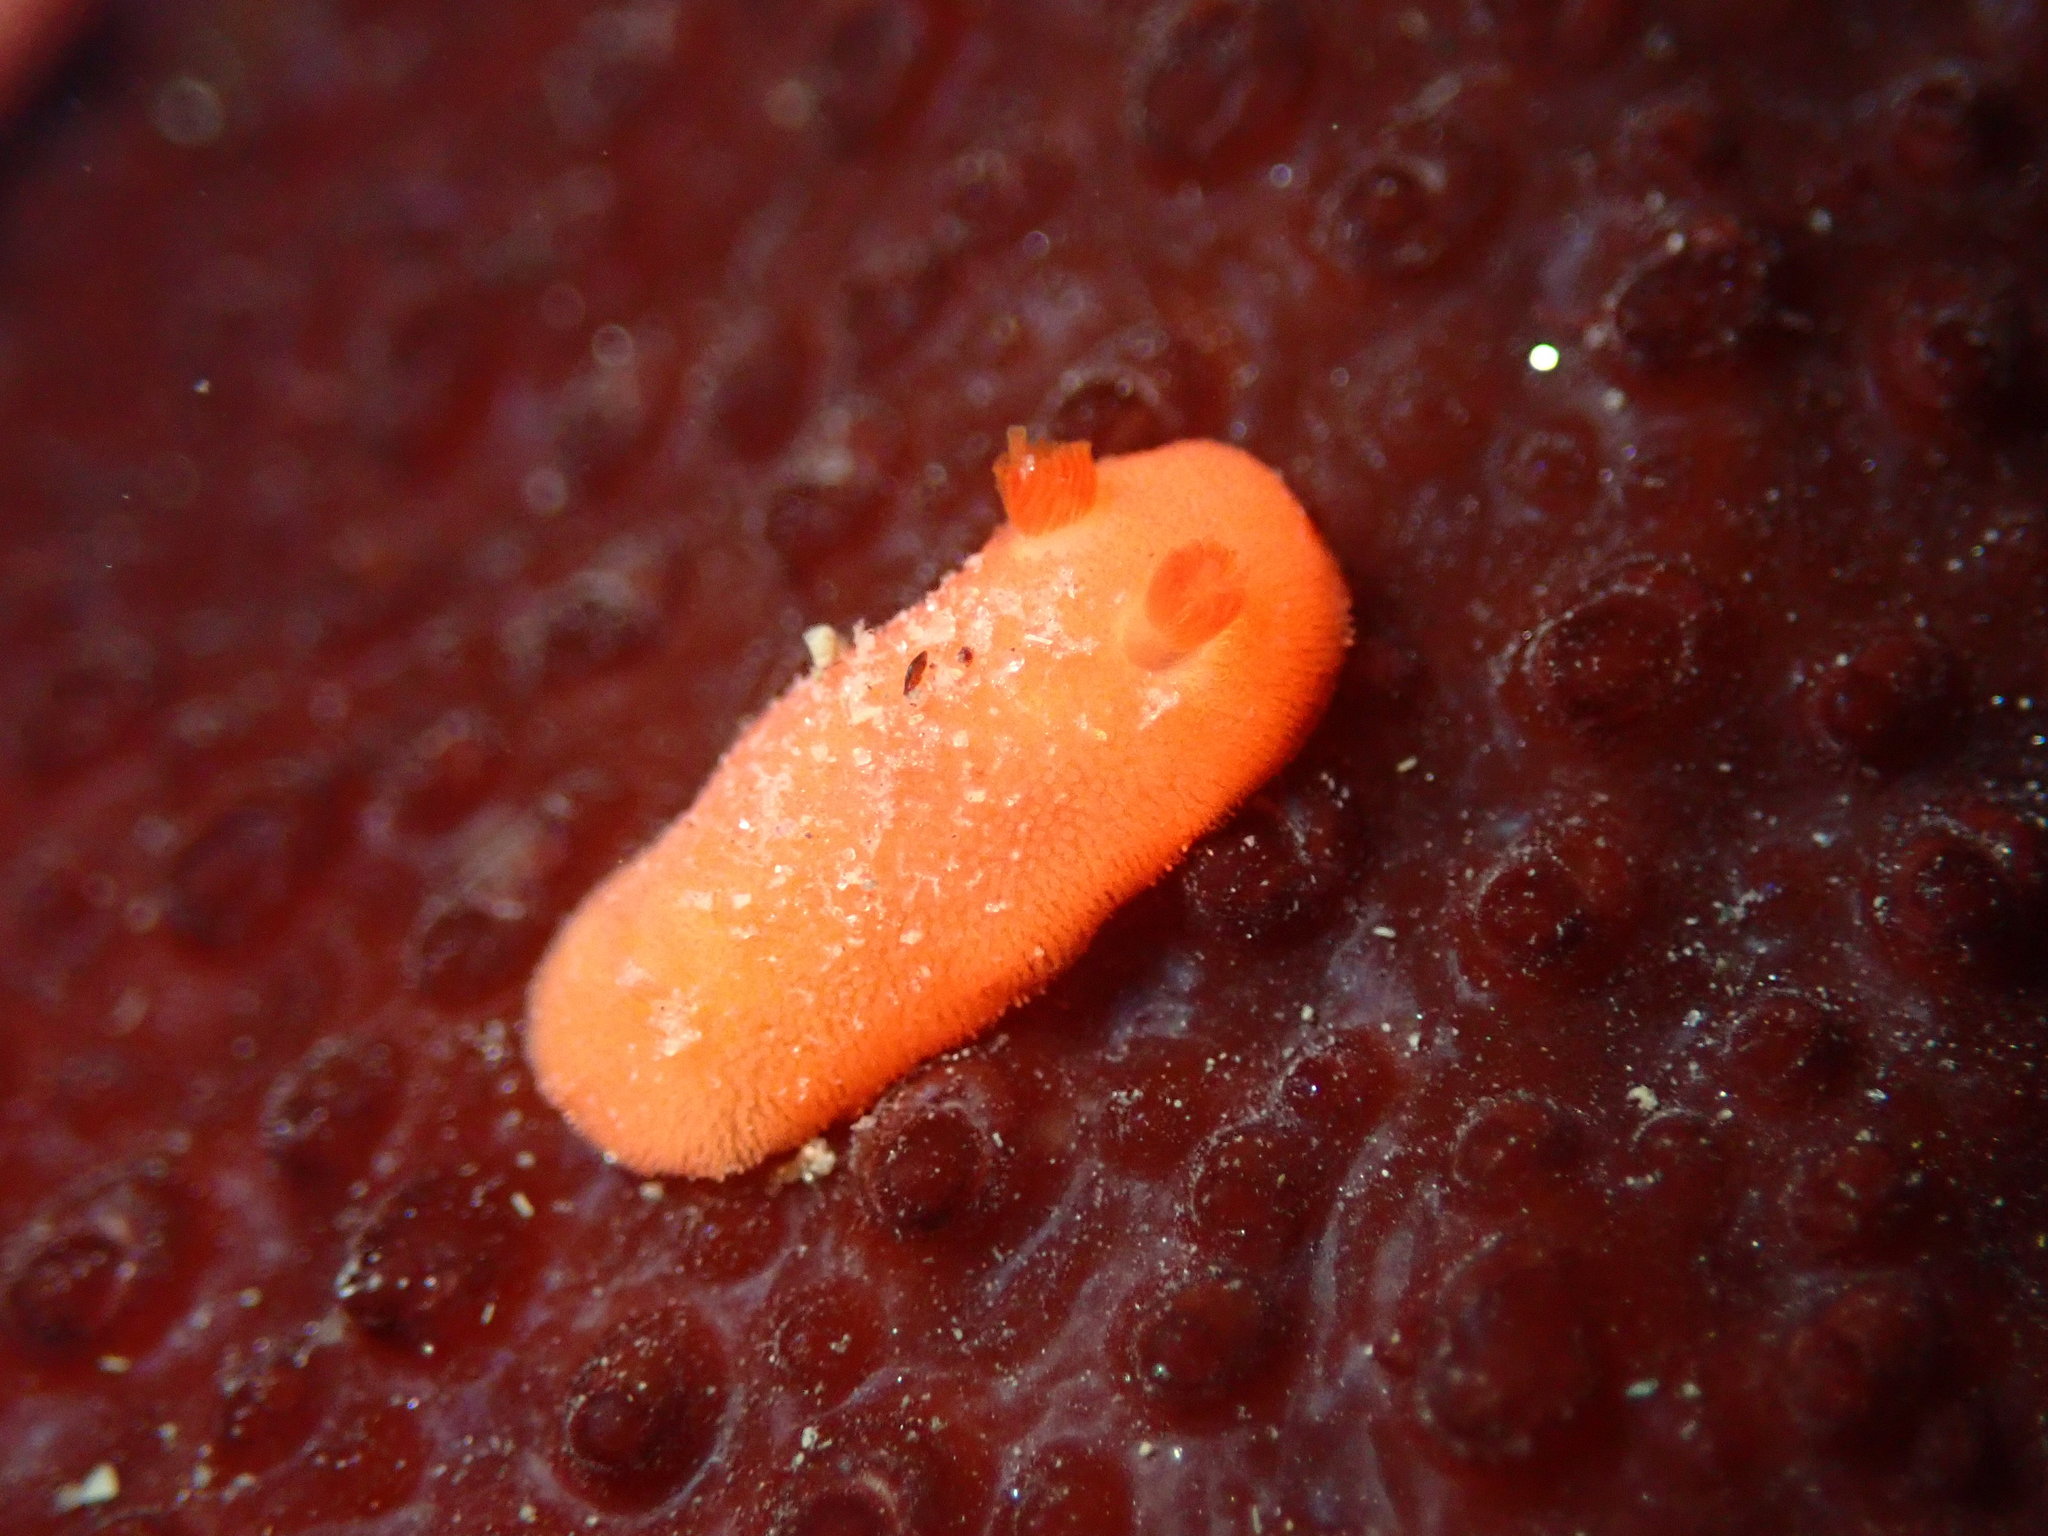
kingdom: Animalia
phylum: Mollusca
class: Gastropoda
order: Nudibranchia
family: Discodorididae
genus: Rostanga
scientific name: Rostanga pulchra
